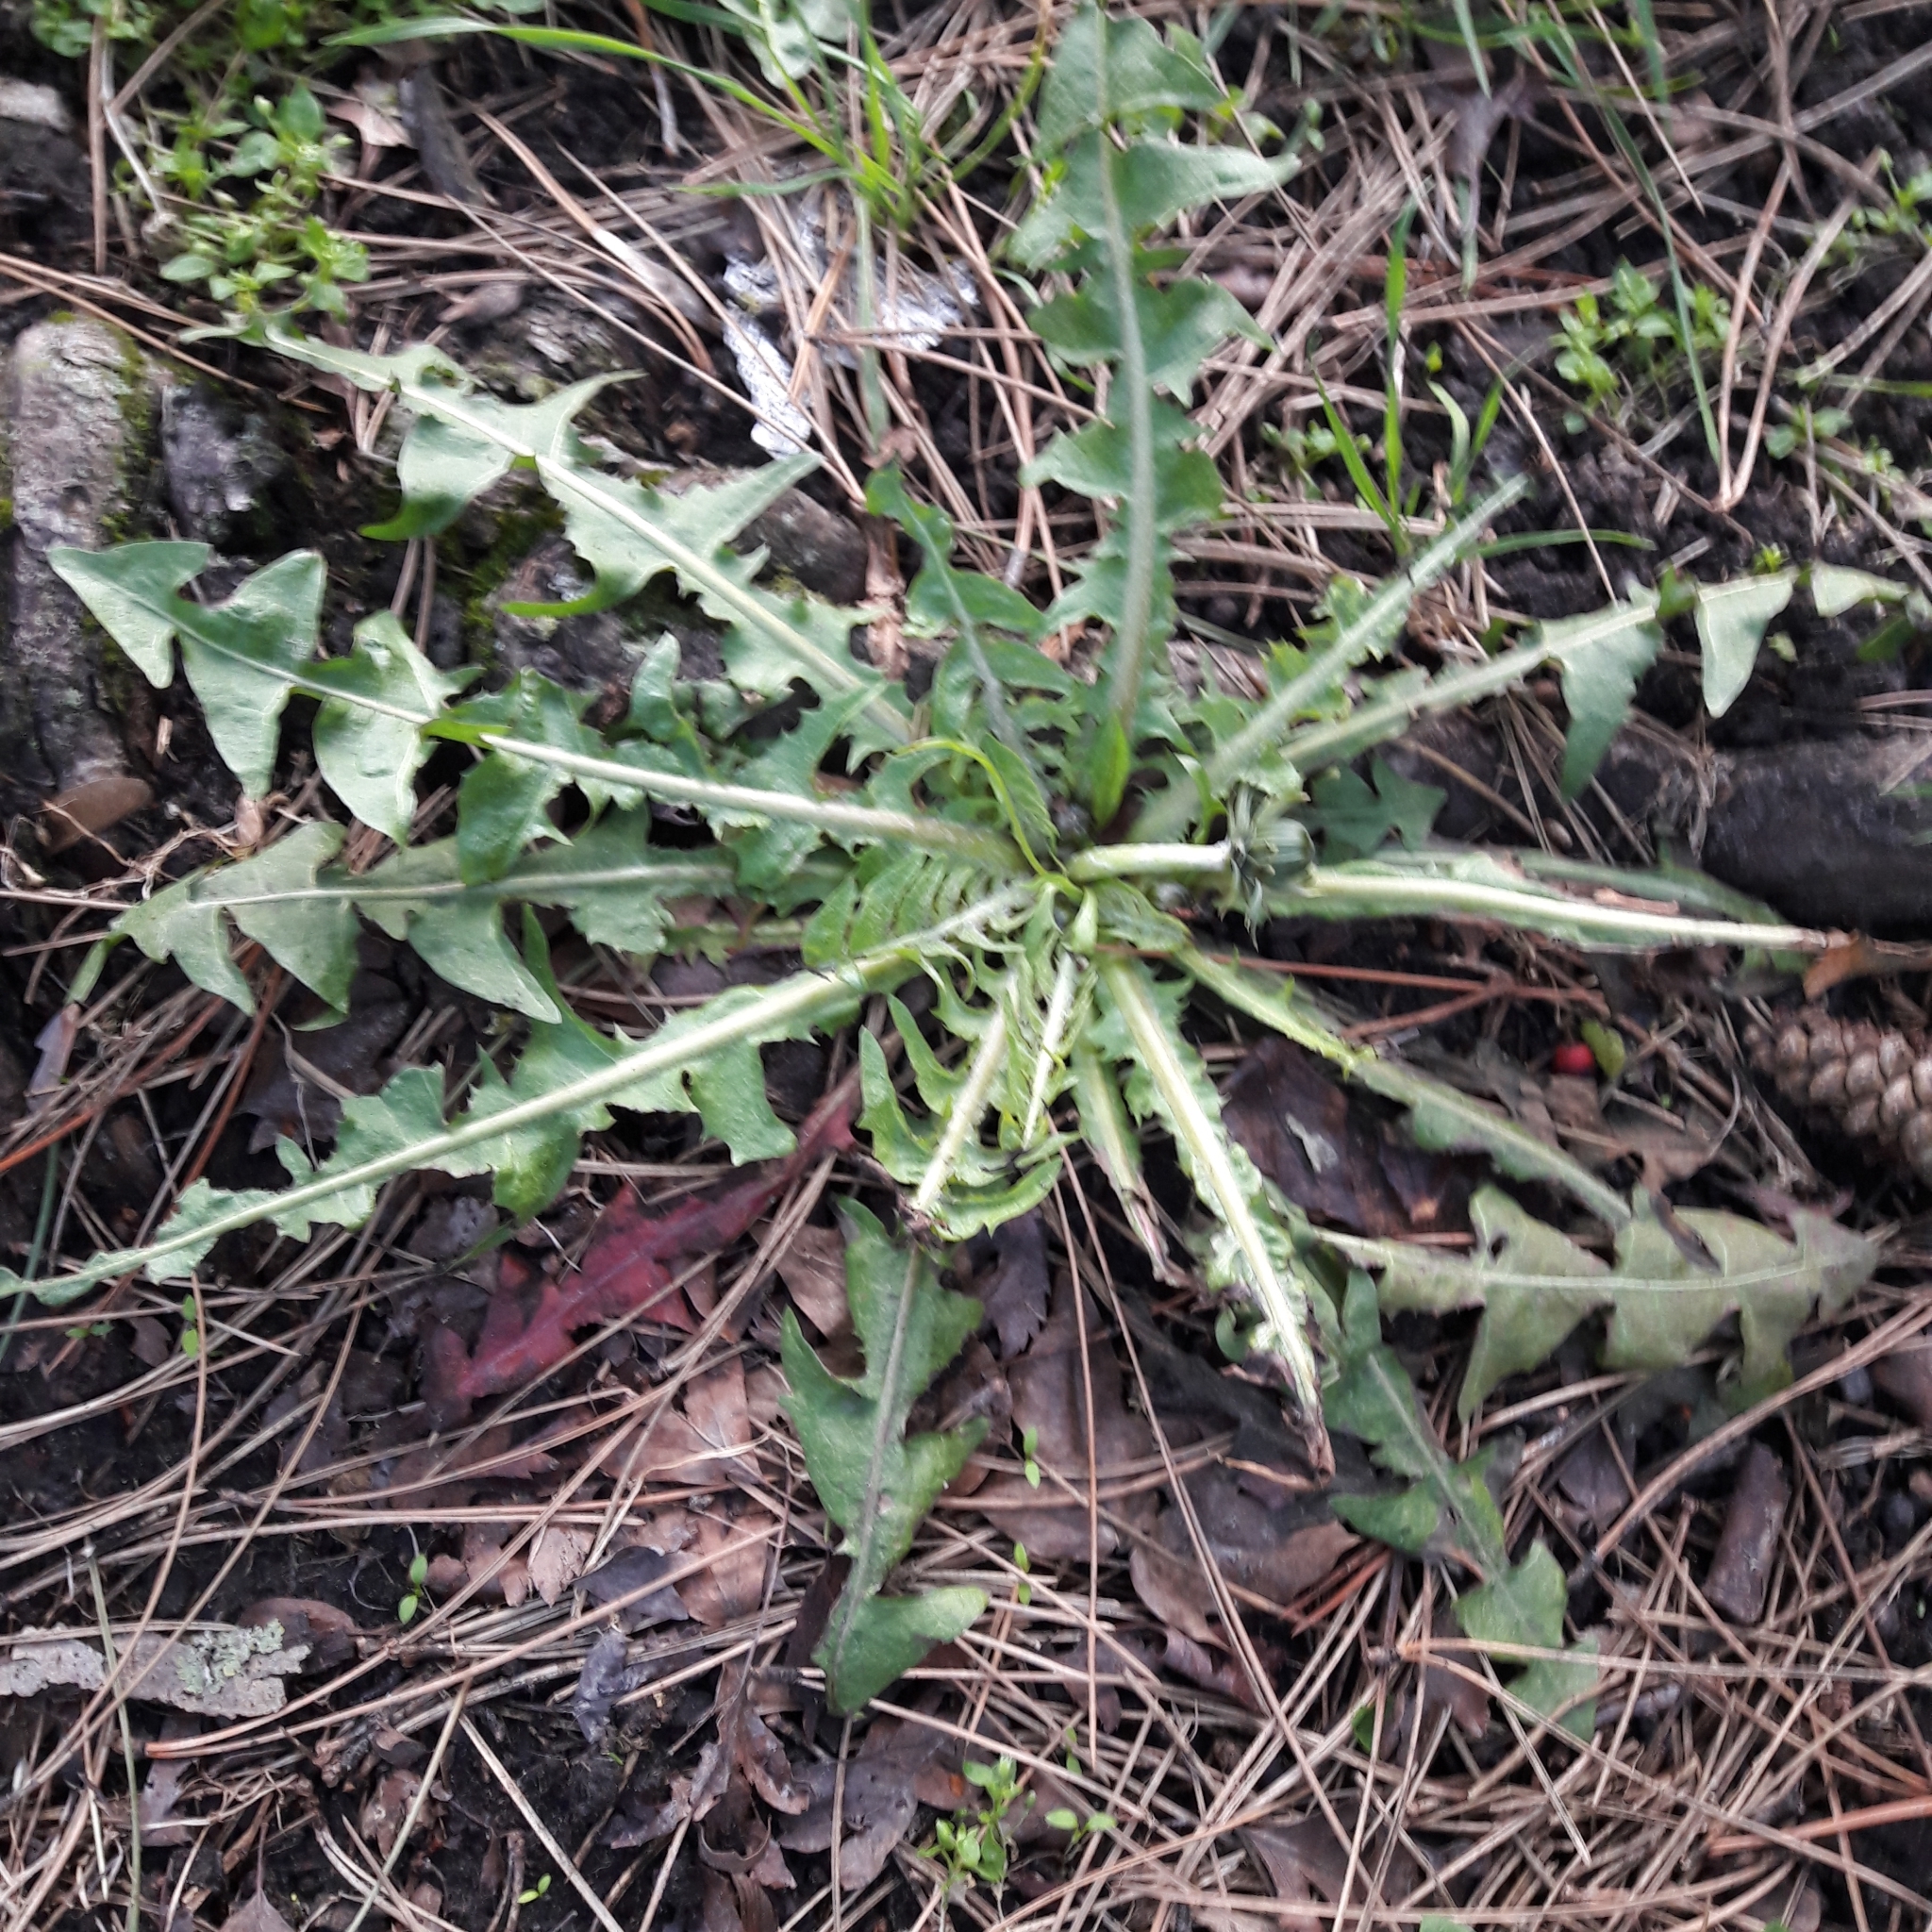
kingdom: Plantae
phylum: Tracheophyta
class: Magnoliopsida
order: Asterales
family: Asteraceae
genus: Taraxacum
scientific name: Taraxacum officinale
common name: Common dandelion
